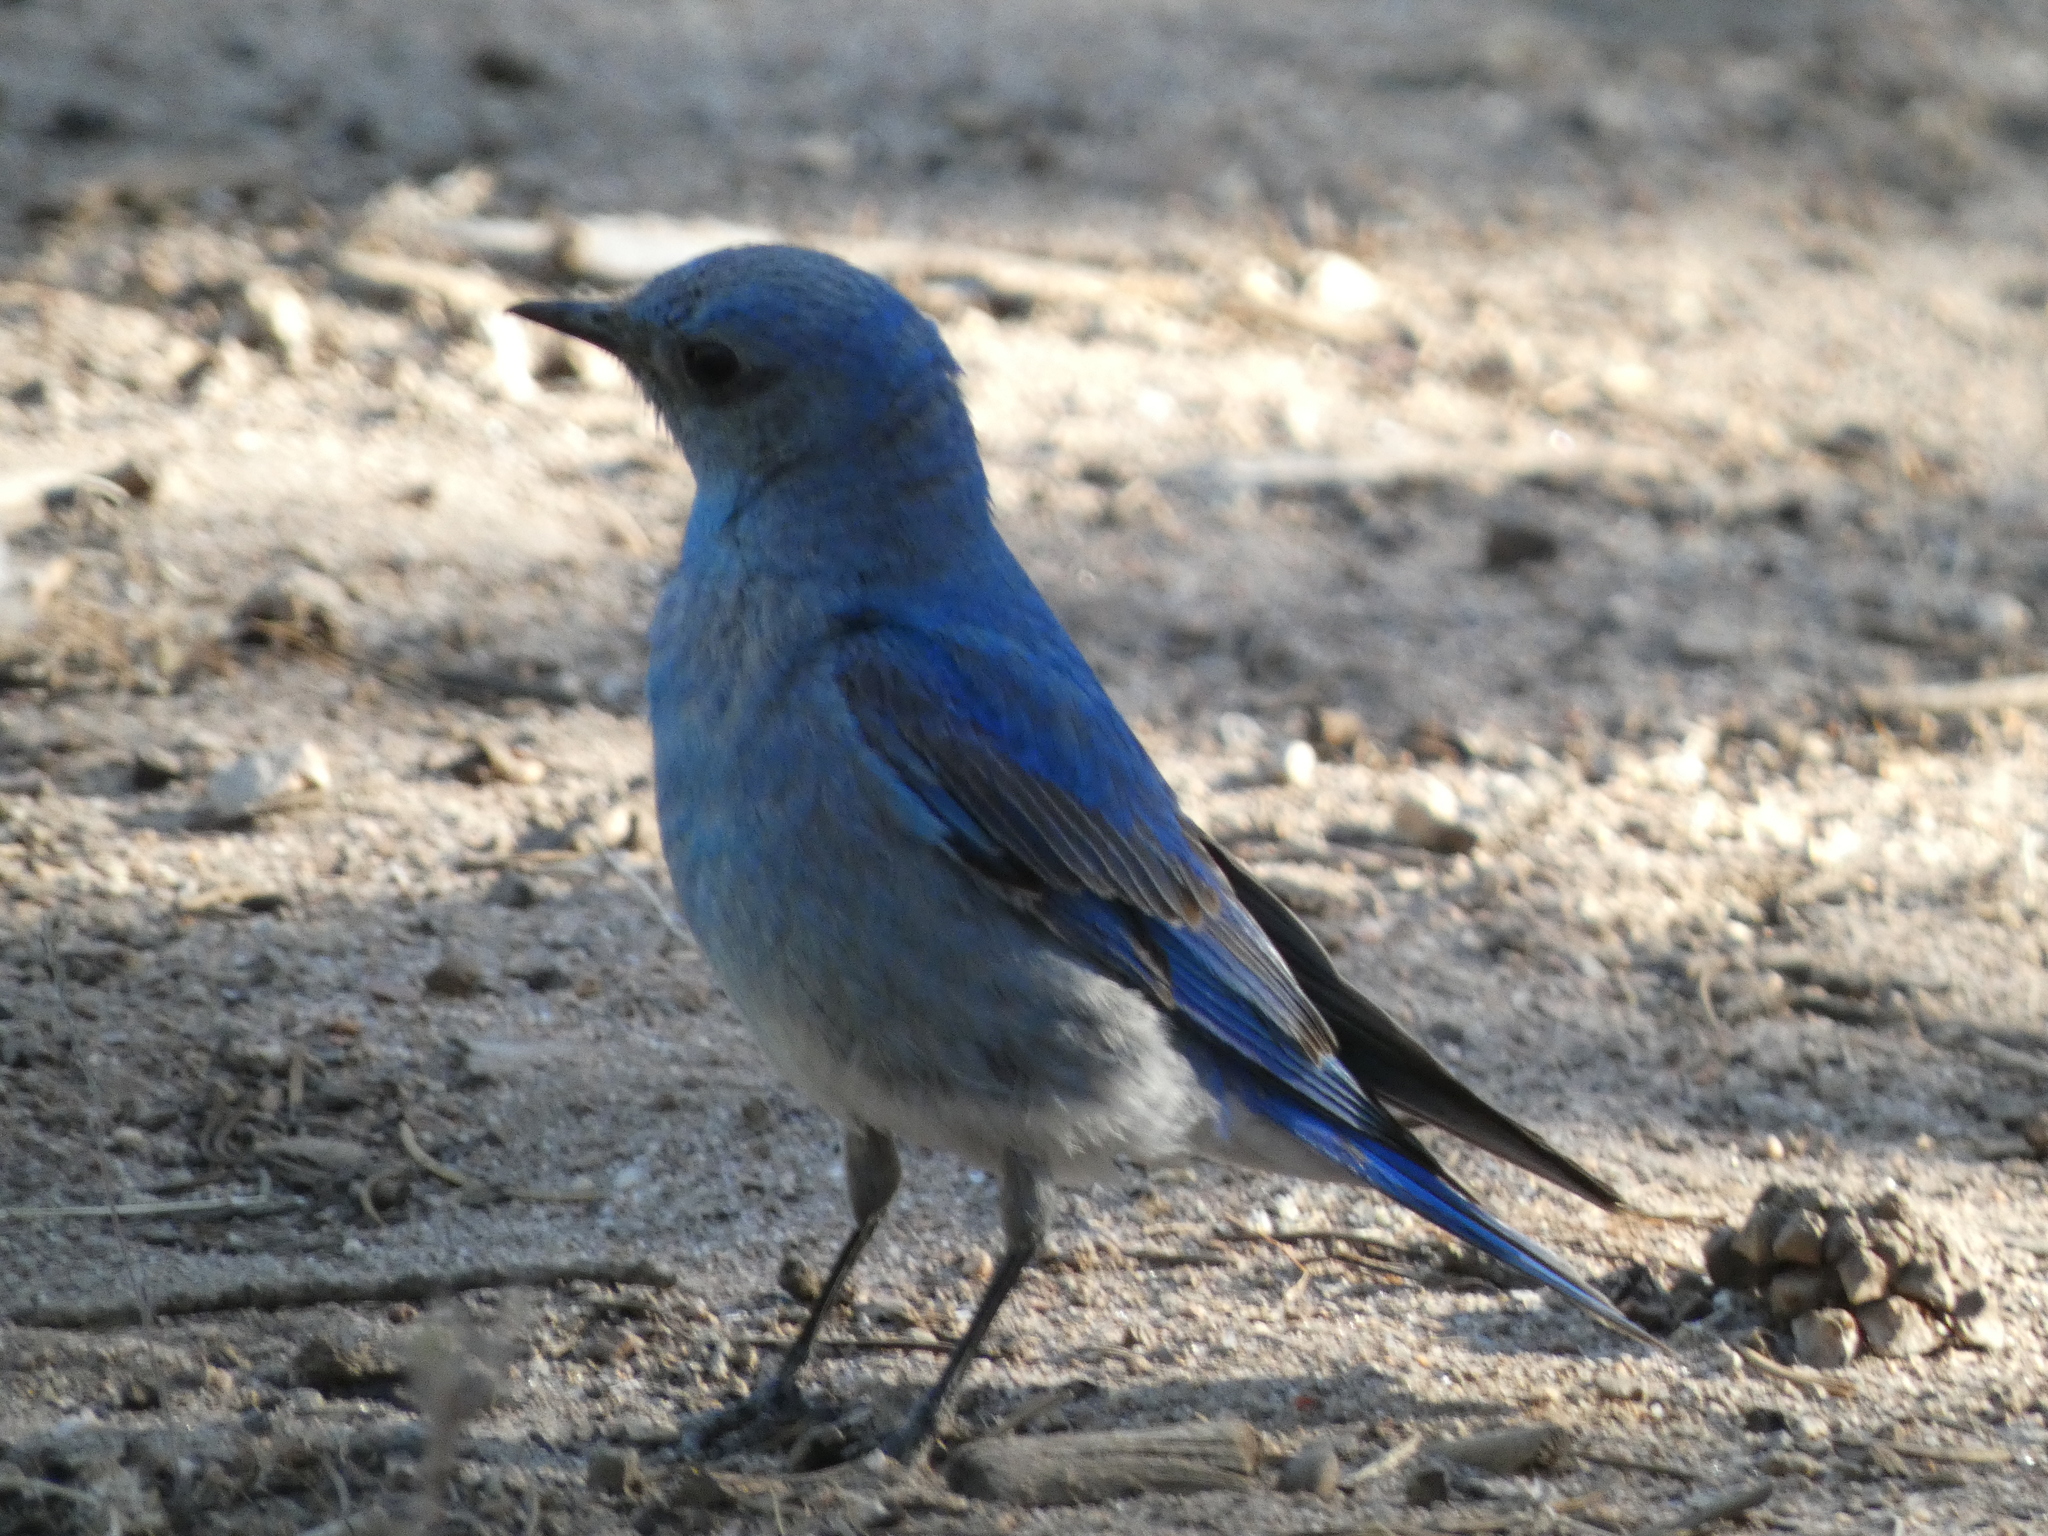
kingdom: Animalia
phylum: Chordata
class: Aves
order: Passeriformes
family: Turdidae
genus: Sialia
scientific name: Sialia currucoides
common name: Mountain bluebird
